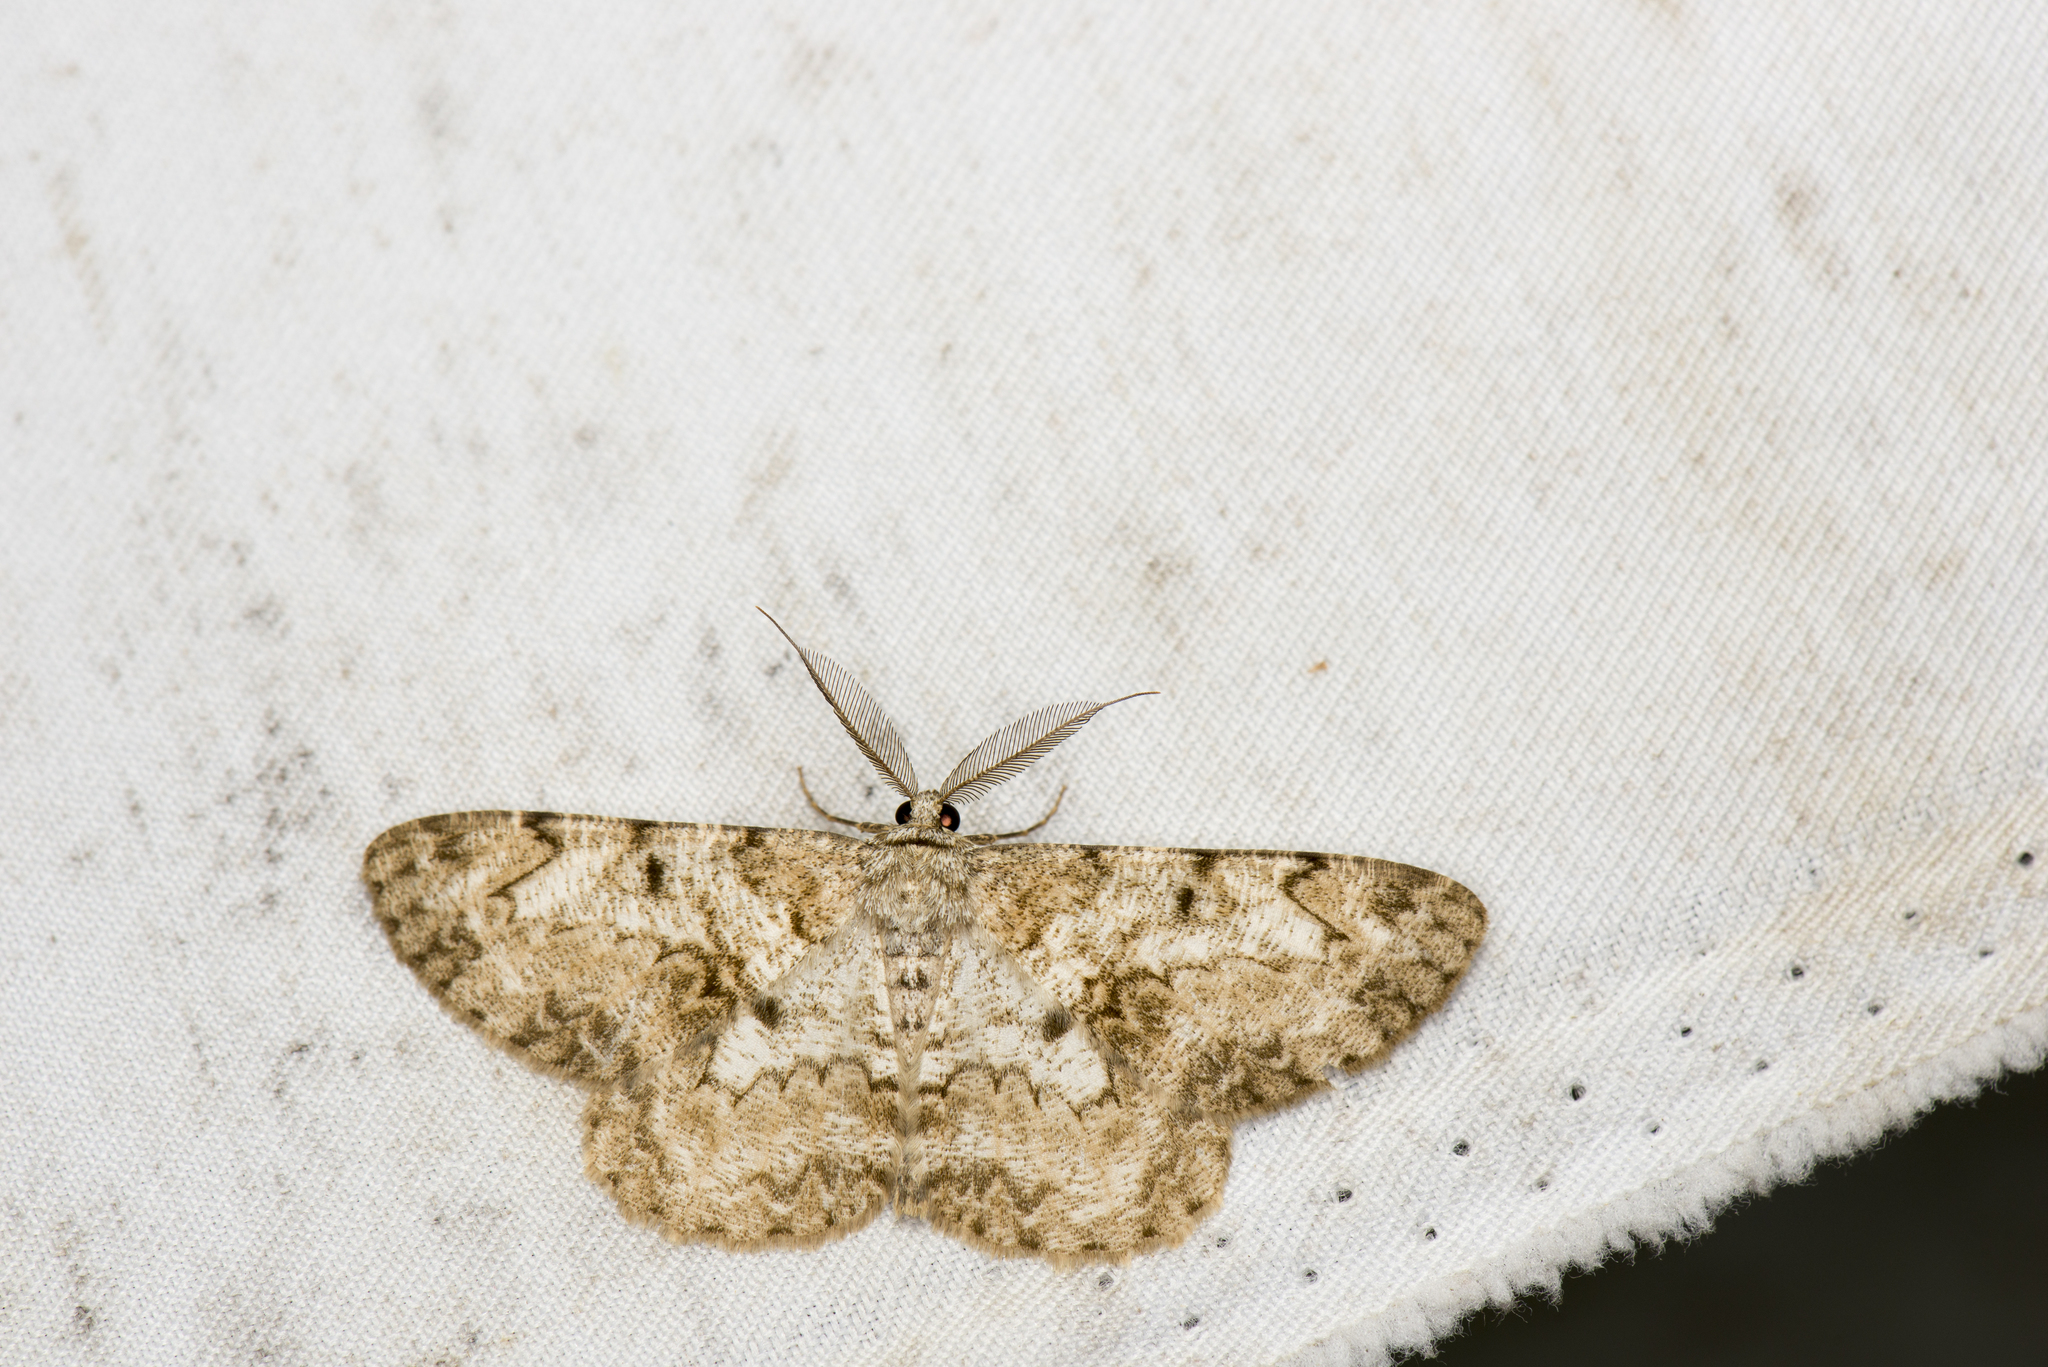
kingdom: Animalia
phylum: Arthropoda
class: Insecta
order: Lepidoptera
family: Geometridae
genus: Hypomecis
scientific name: Hypomecis percnioides
